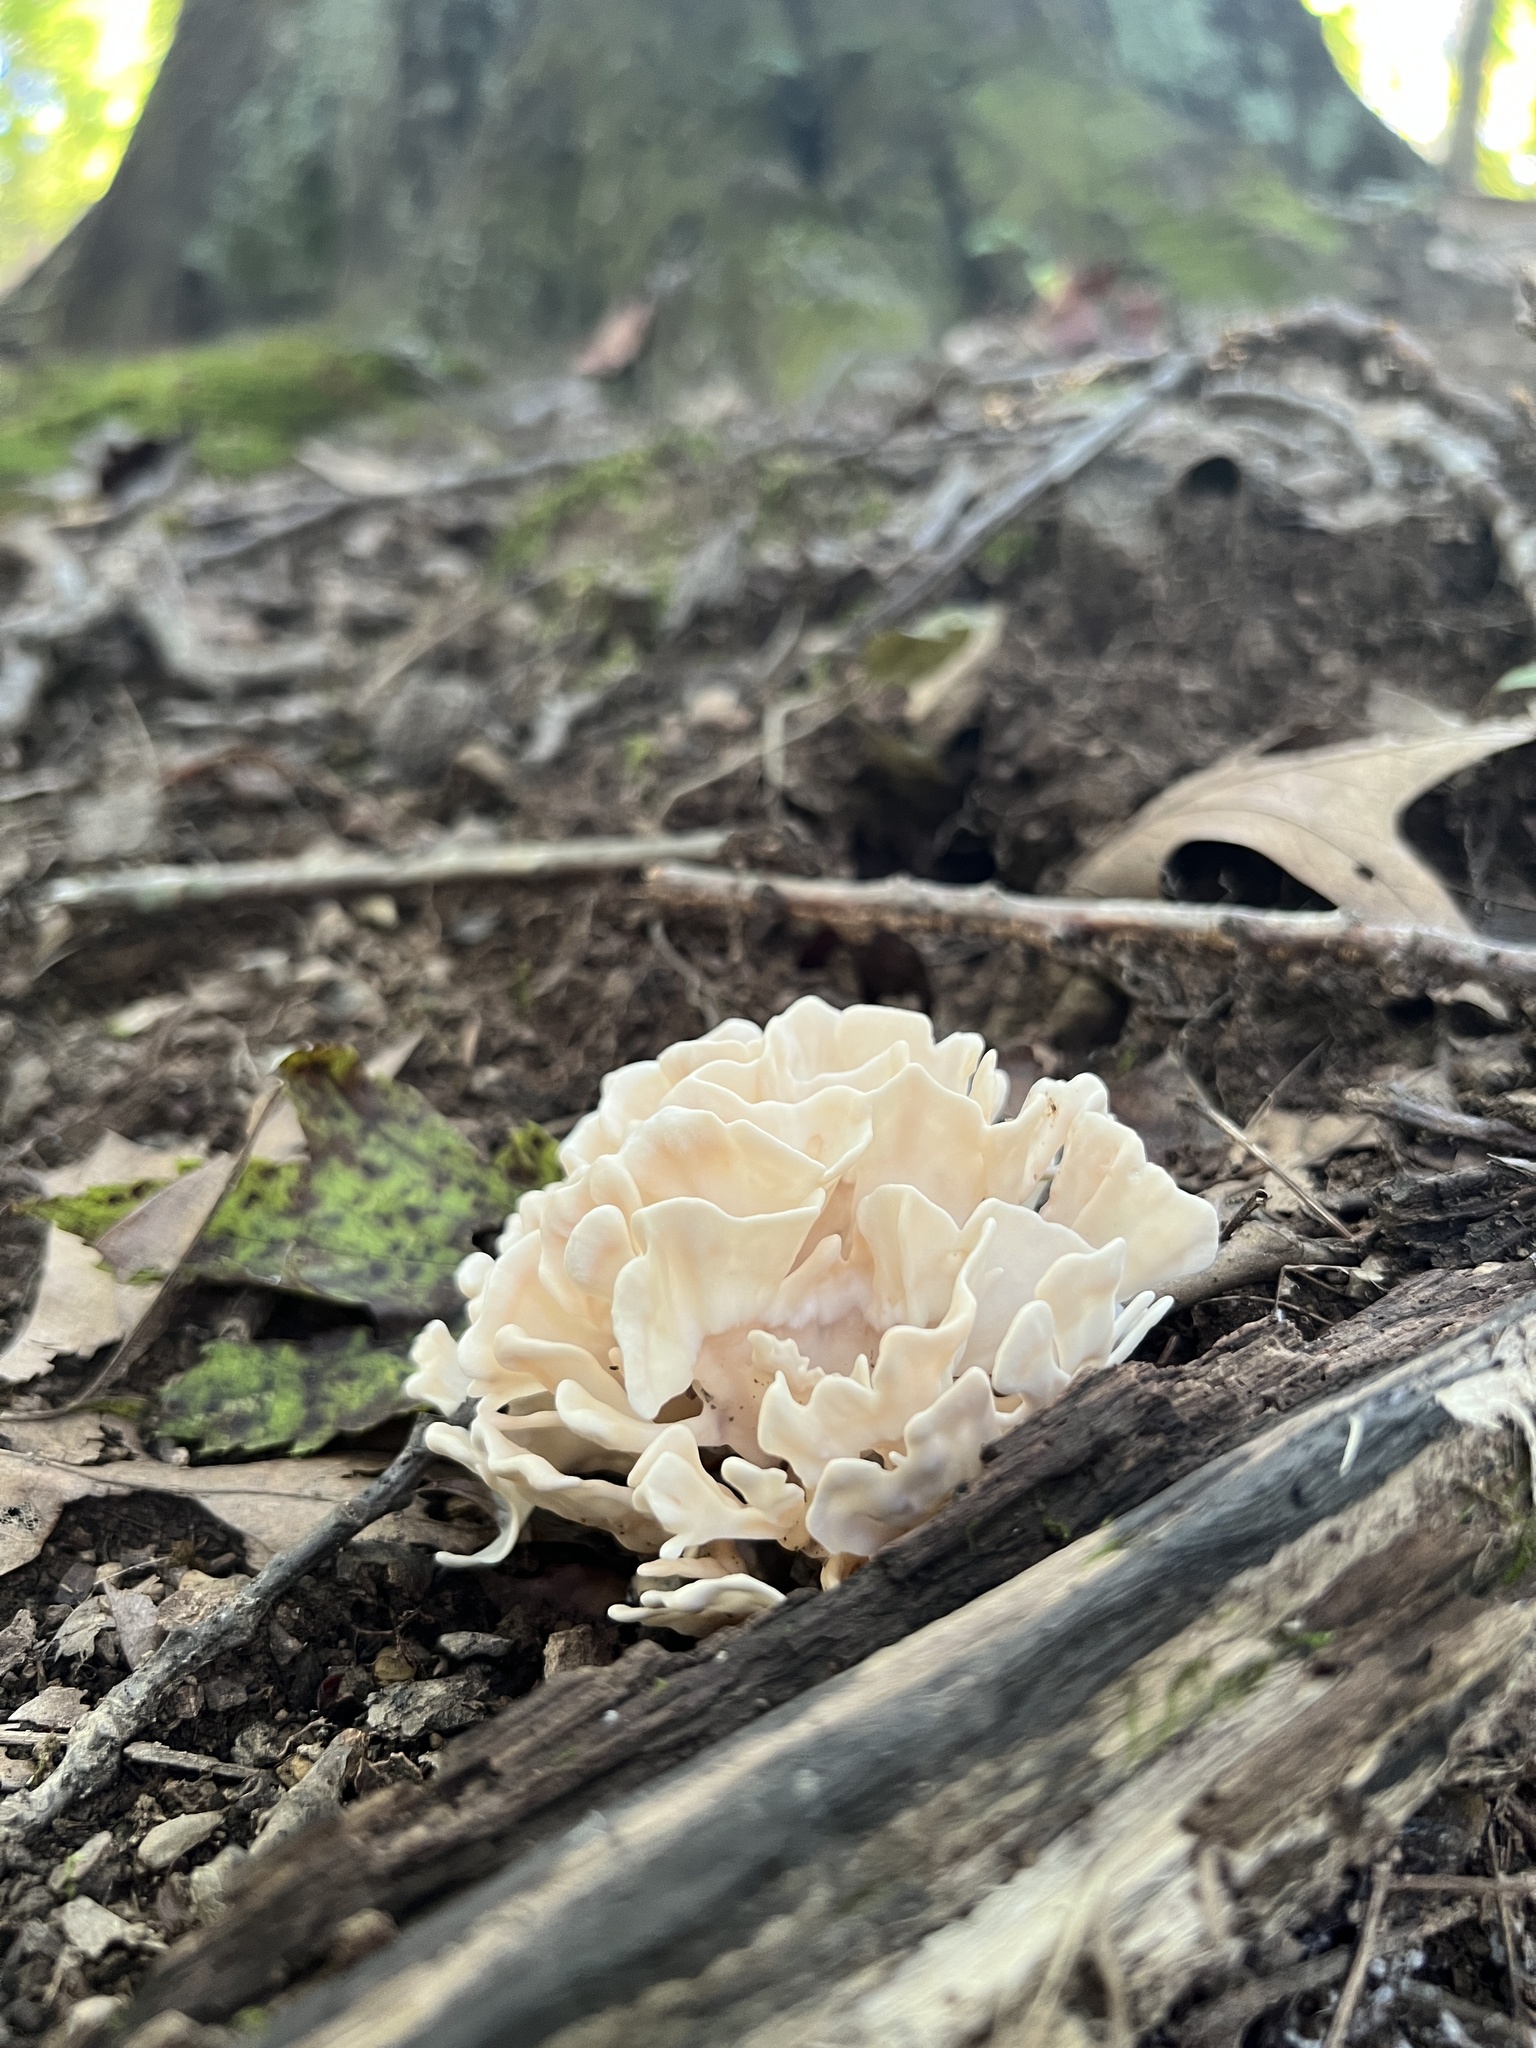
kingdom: Fungi
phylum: Basidiomycota
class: Agaricomycetes
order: Polyporales
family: Sparassidaceae
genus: Sparassis
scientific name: Sparassis spathulata
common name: Eastern cauliflower mushroom
